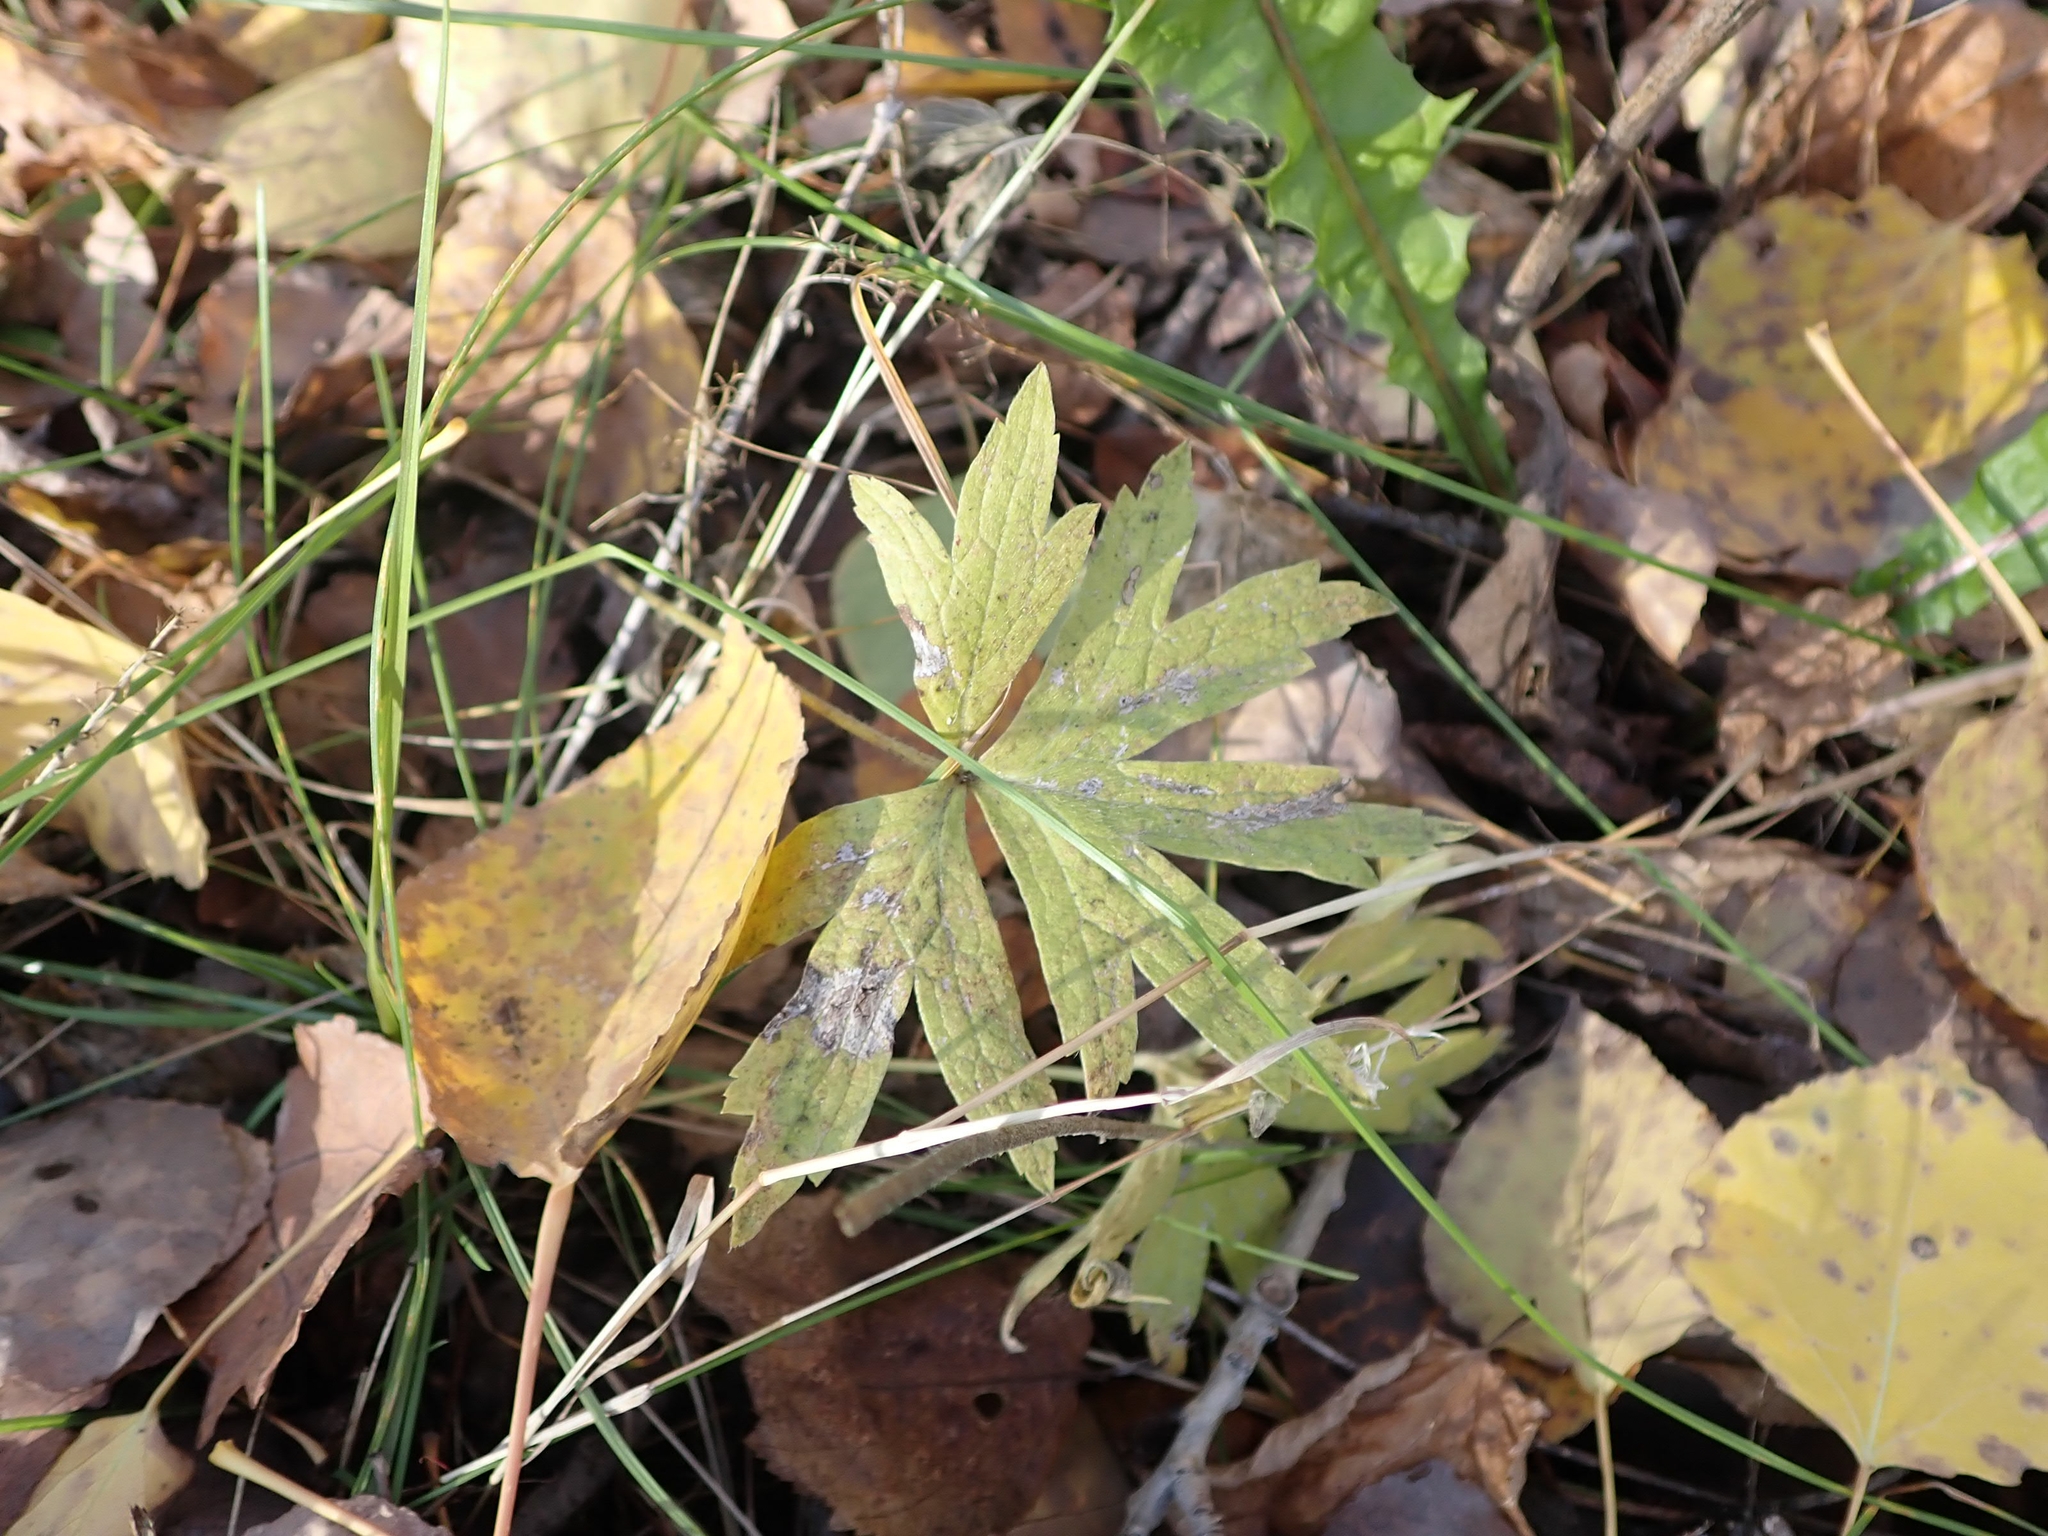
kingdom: Plantae
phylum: Tracheophyta
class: Magnoliopsida
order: Ranunculales
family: Ranunculaceae
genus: Anemonastrum
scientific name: Anemonastrum canadense
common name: Canada anemone
